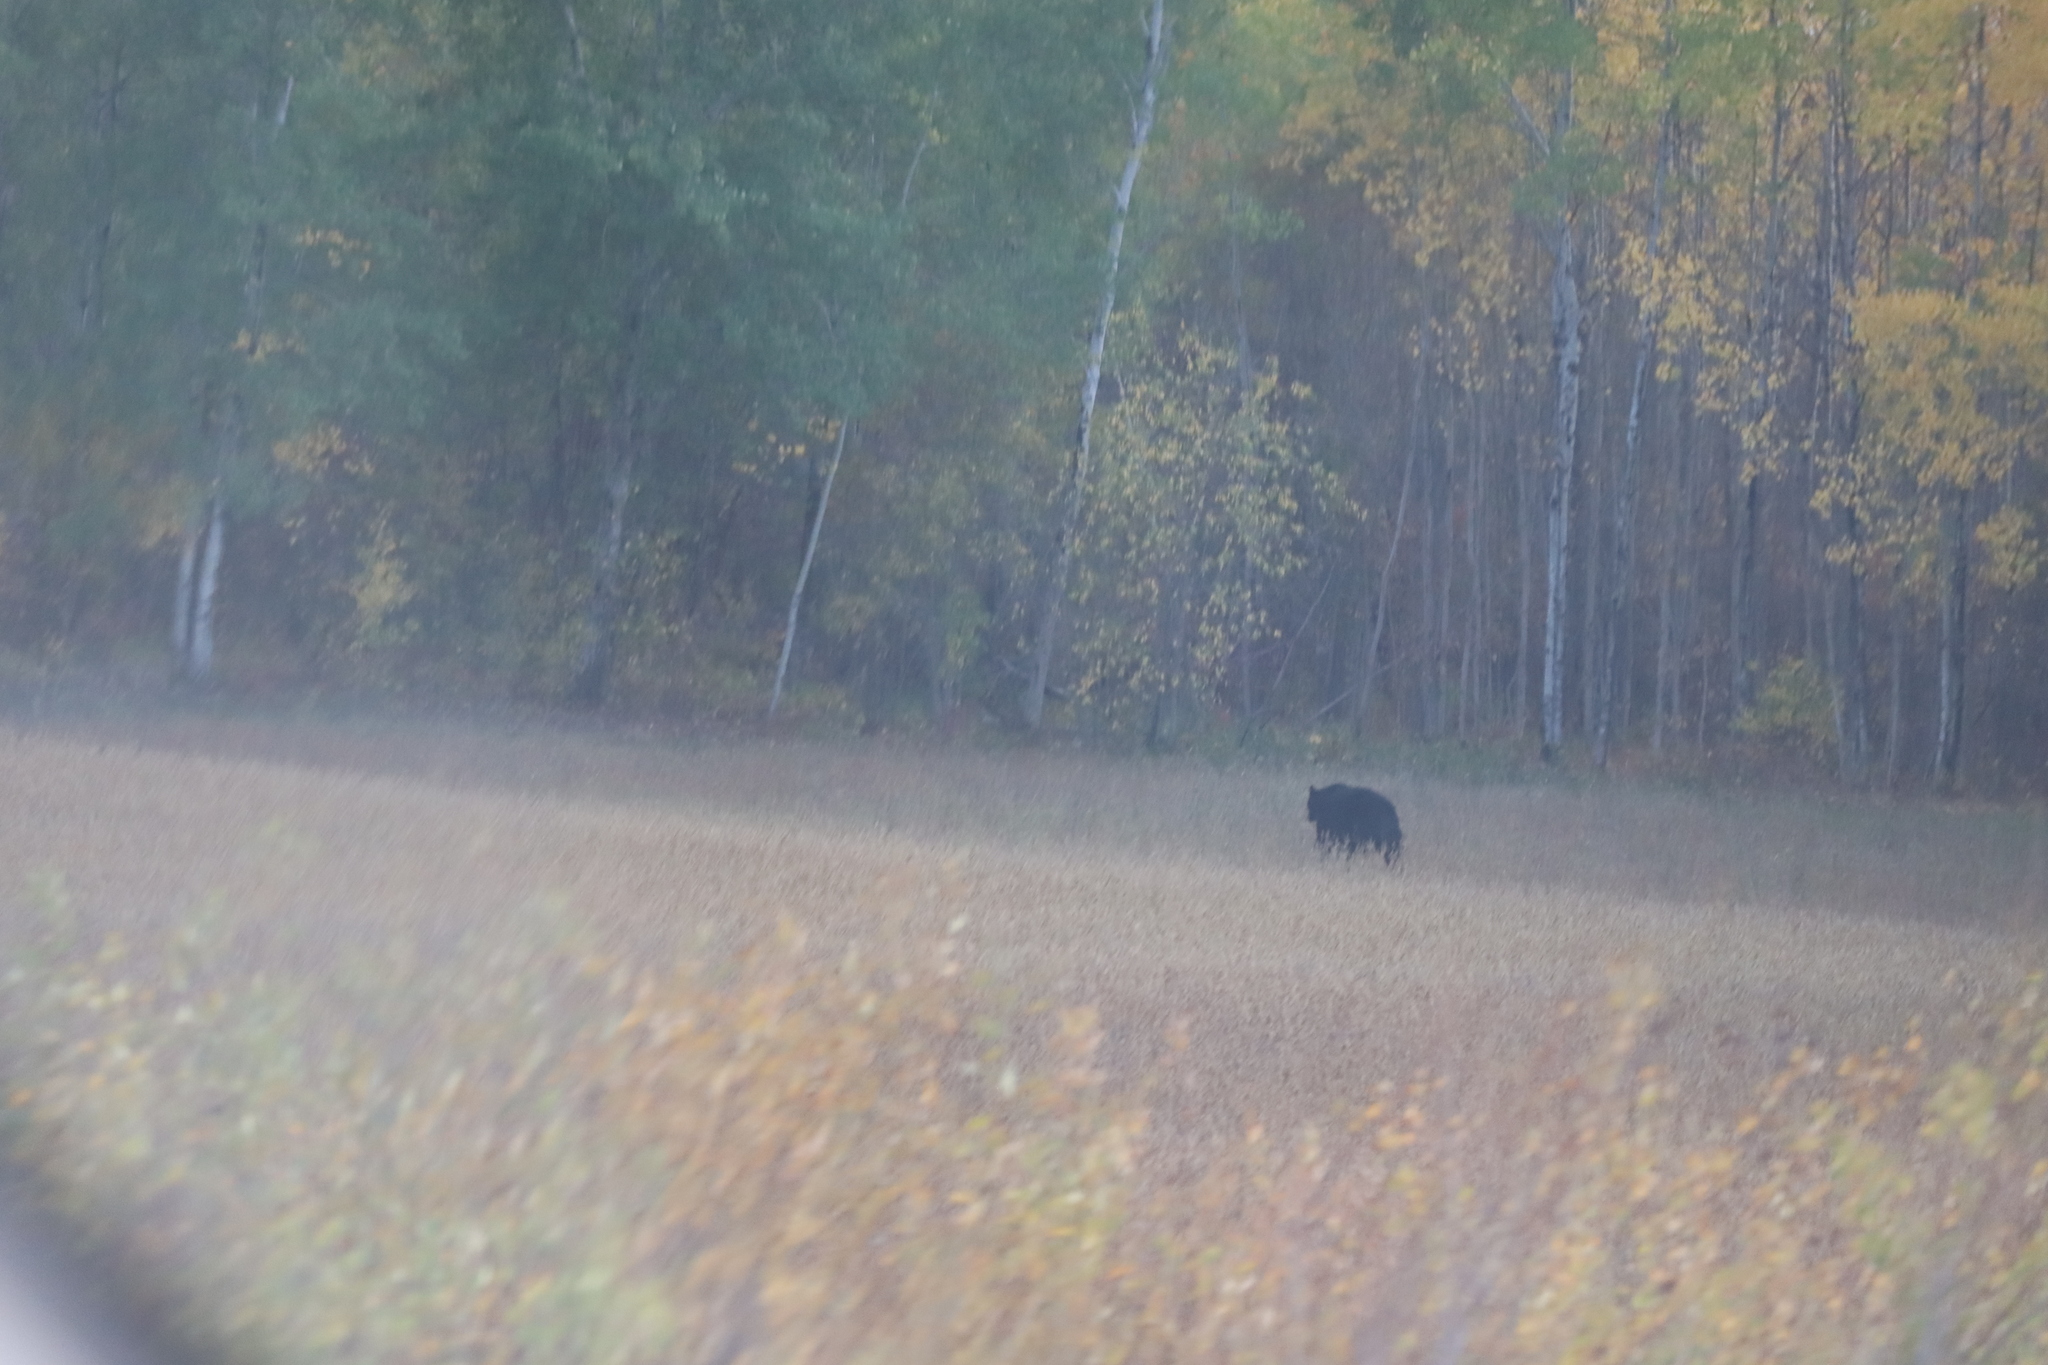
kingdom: Animalia
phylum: Chordata
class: Mammalia
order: Carnivora
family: Ursidae
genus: Ursus
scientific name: Ursus americanus
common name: American black bear
